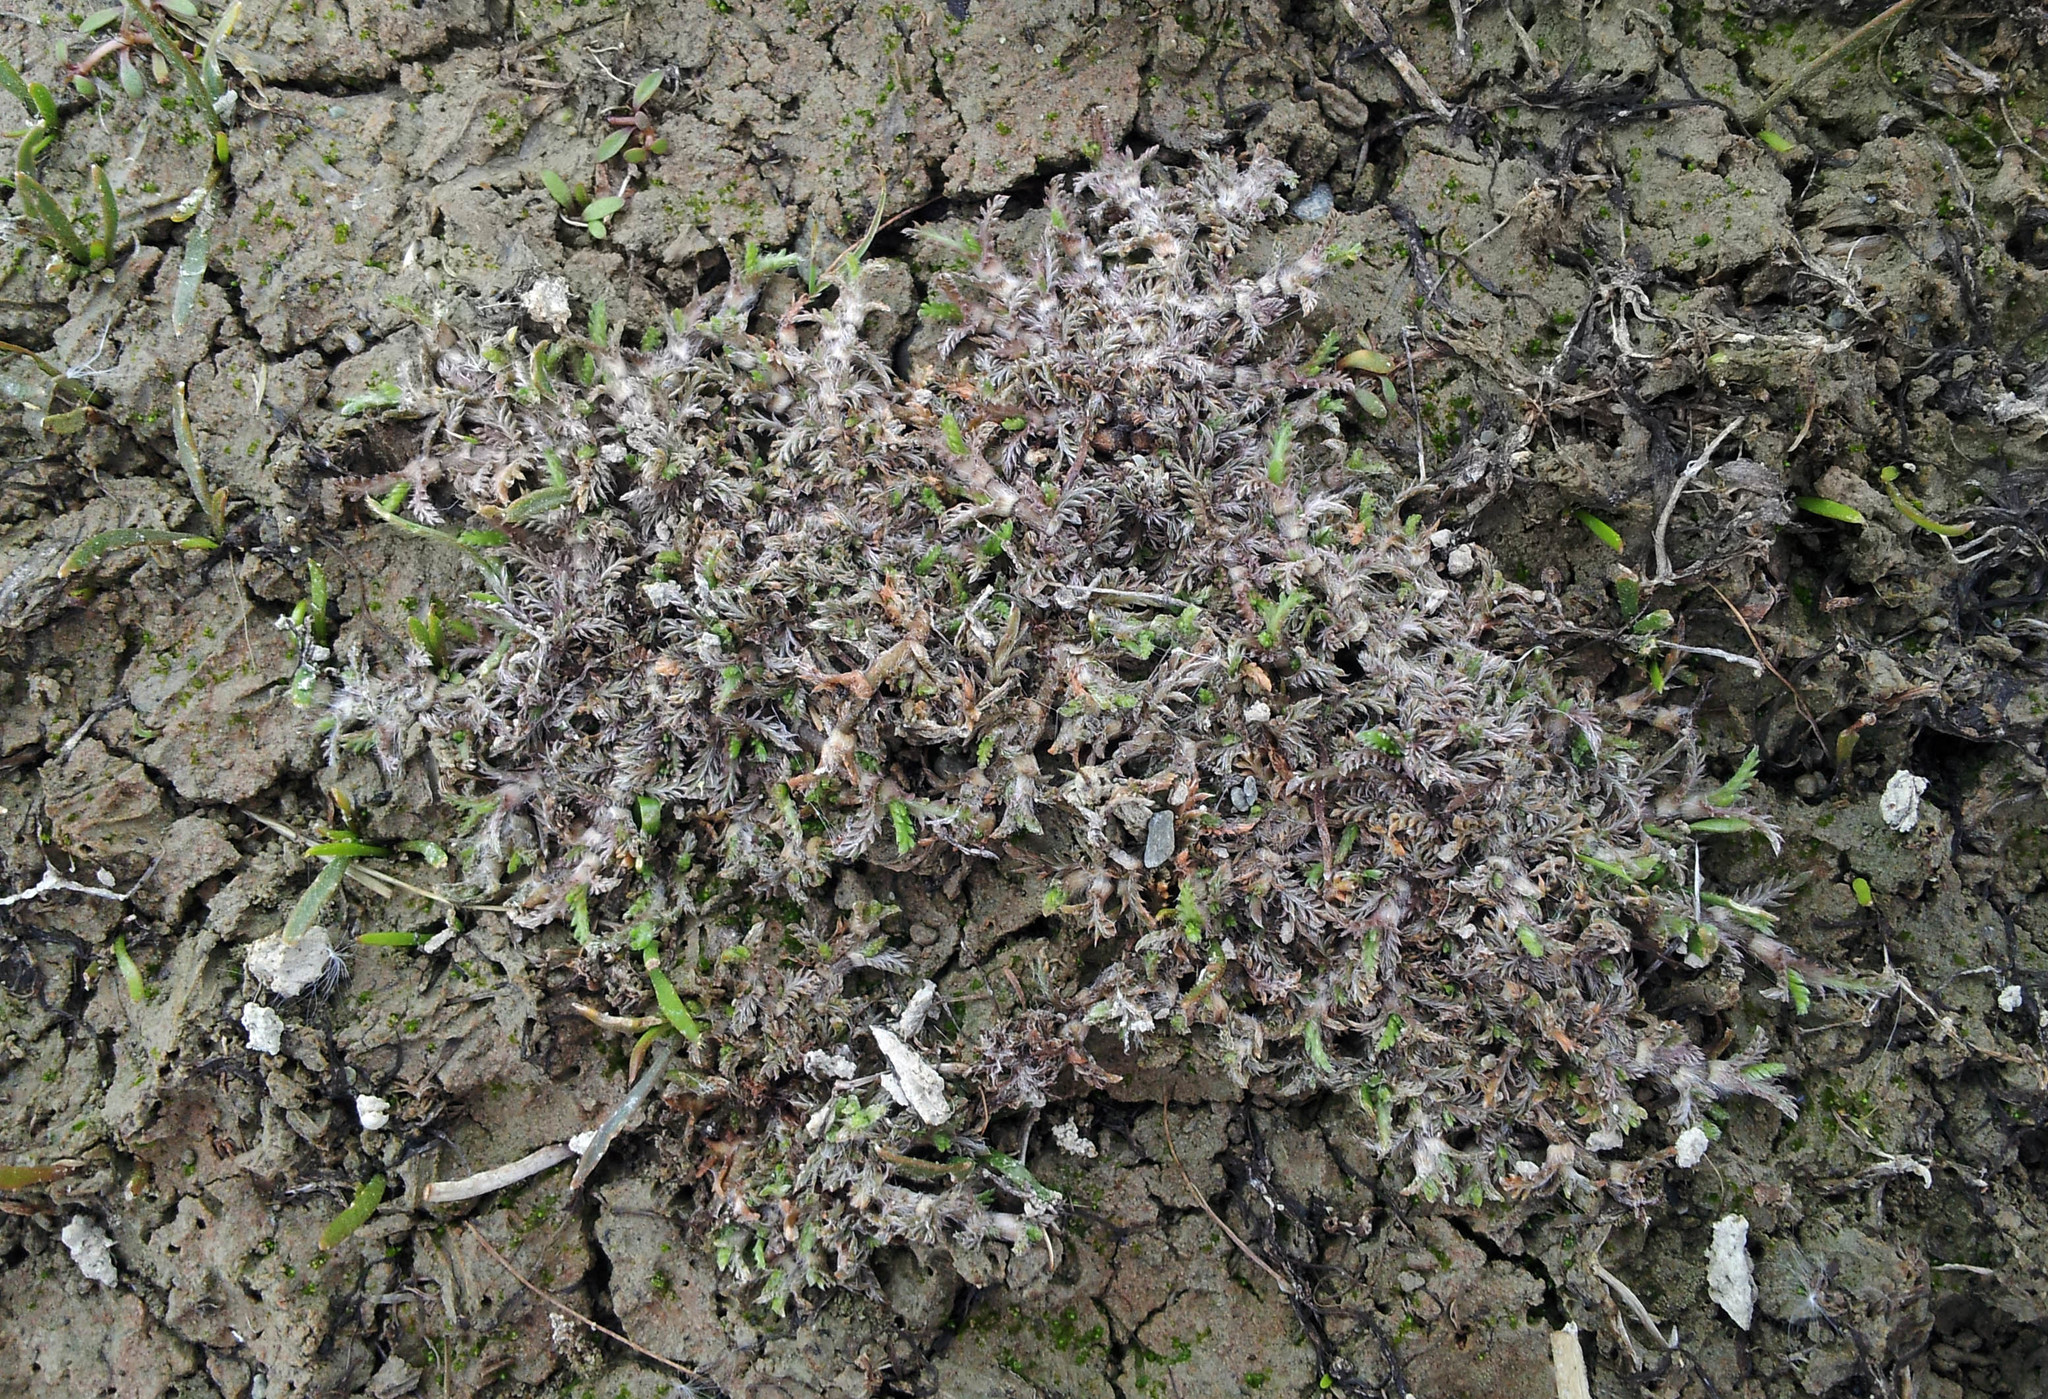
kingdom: Plantae
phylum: Tracheophyta
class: Magnoliopsida
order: Asterales
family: Asteraceae
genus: Leptinella
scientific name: Leptinella maniototo
